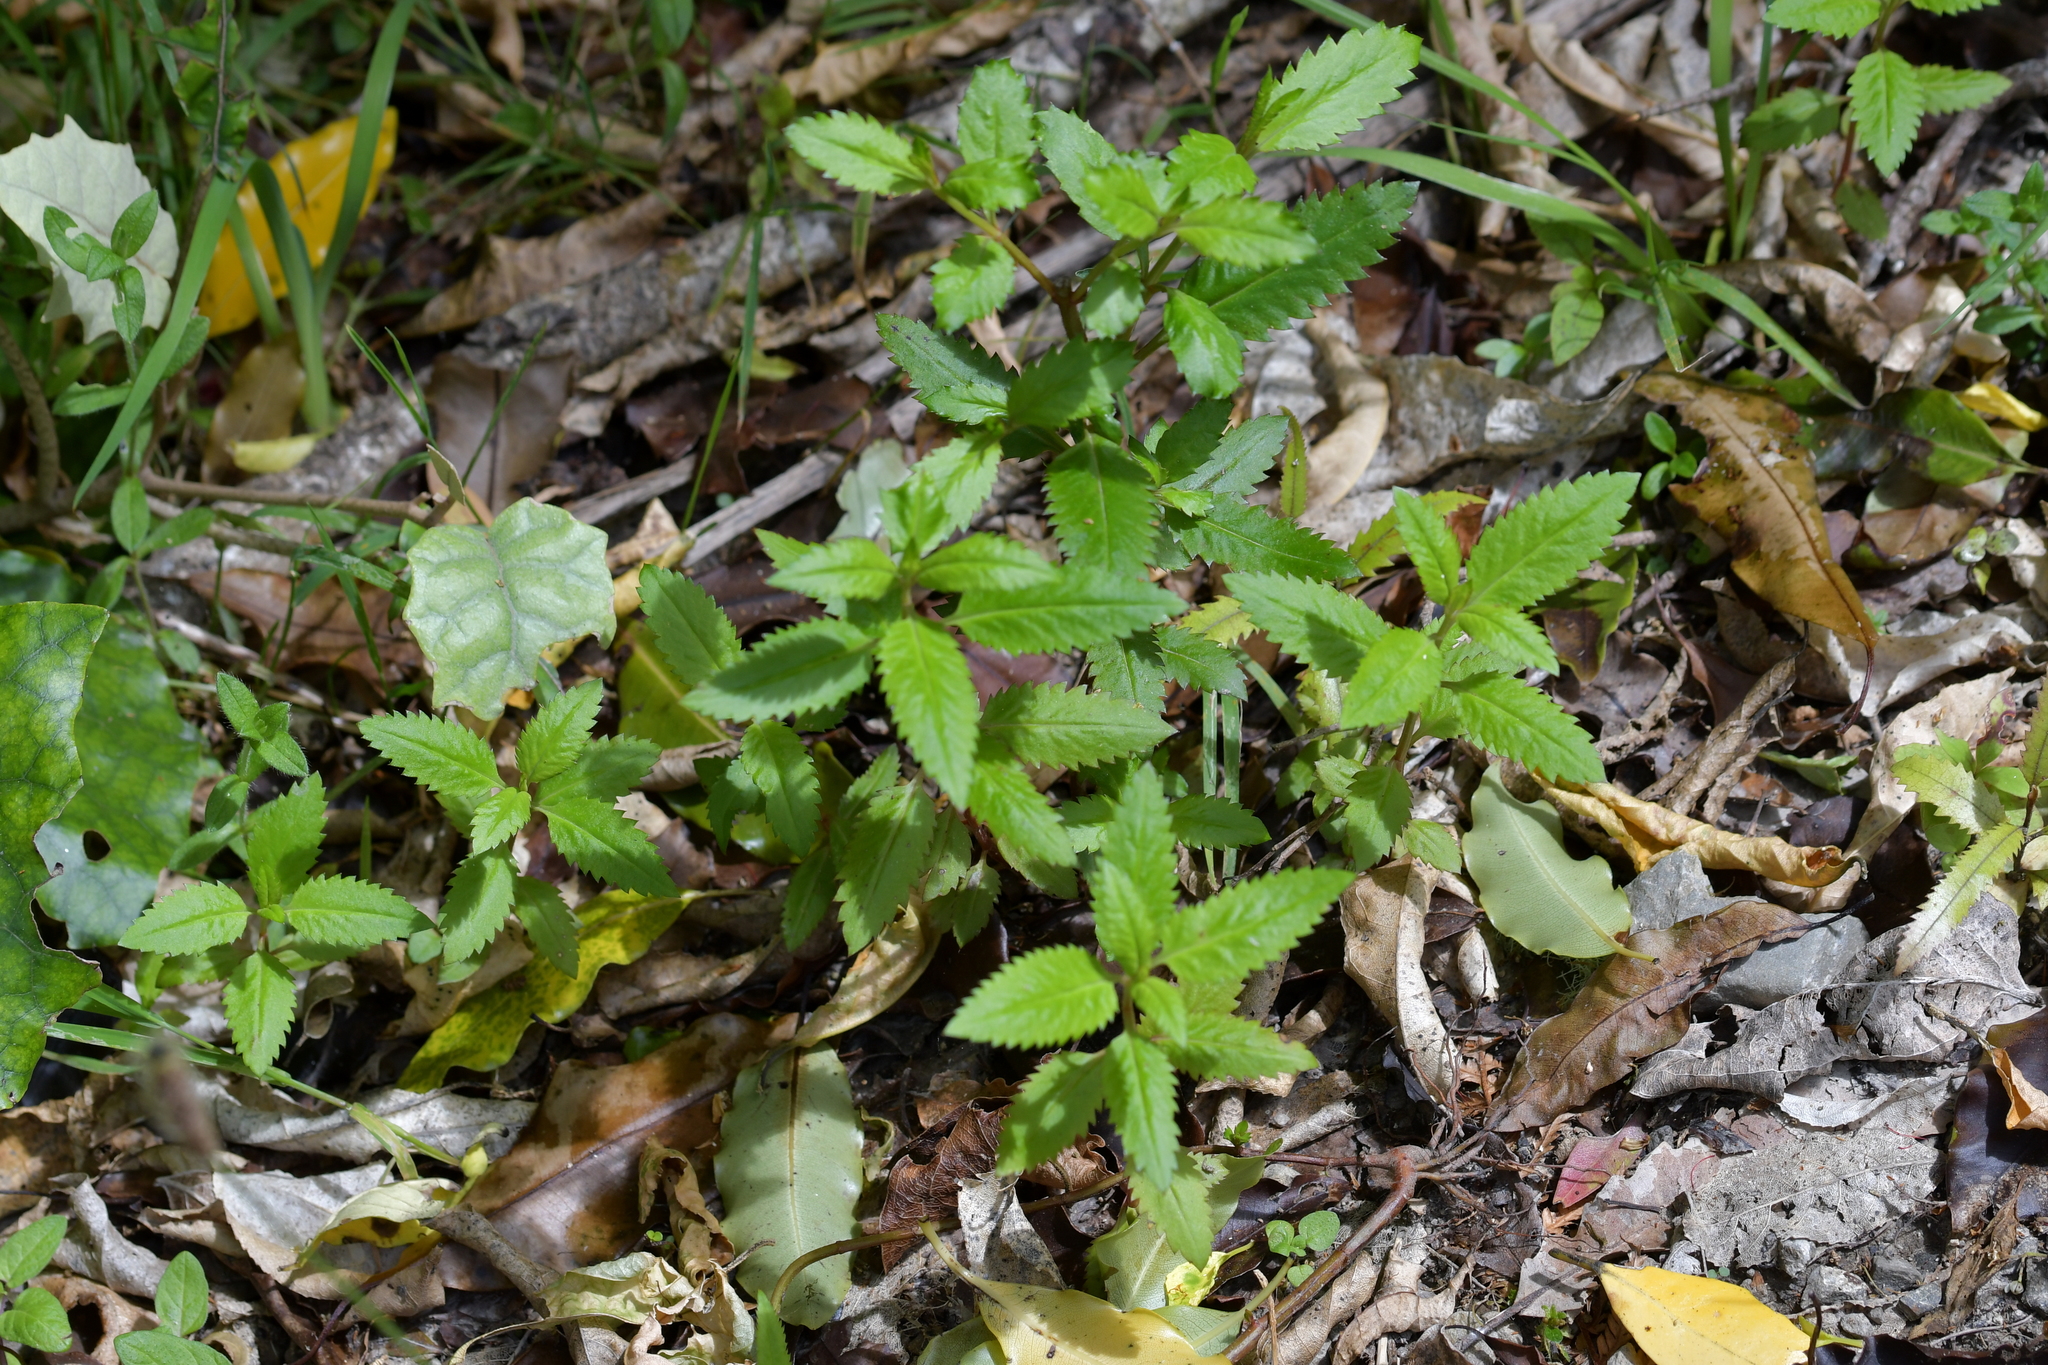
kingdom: Plantae
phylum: Tracheophyta
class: Magnoliopsida
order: Saxifragales
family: Haloragaceae
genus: Haloragis
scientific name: Haloragis erecta
